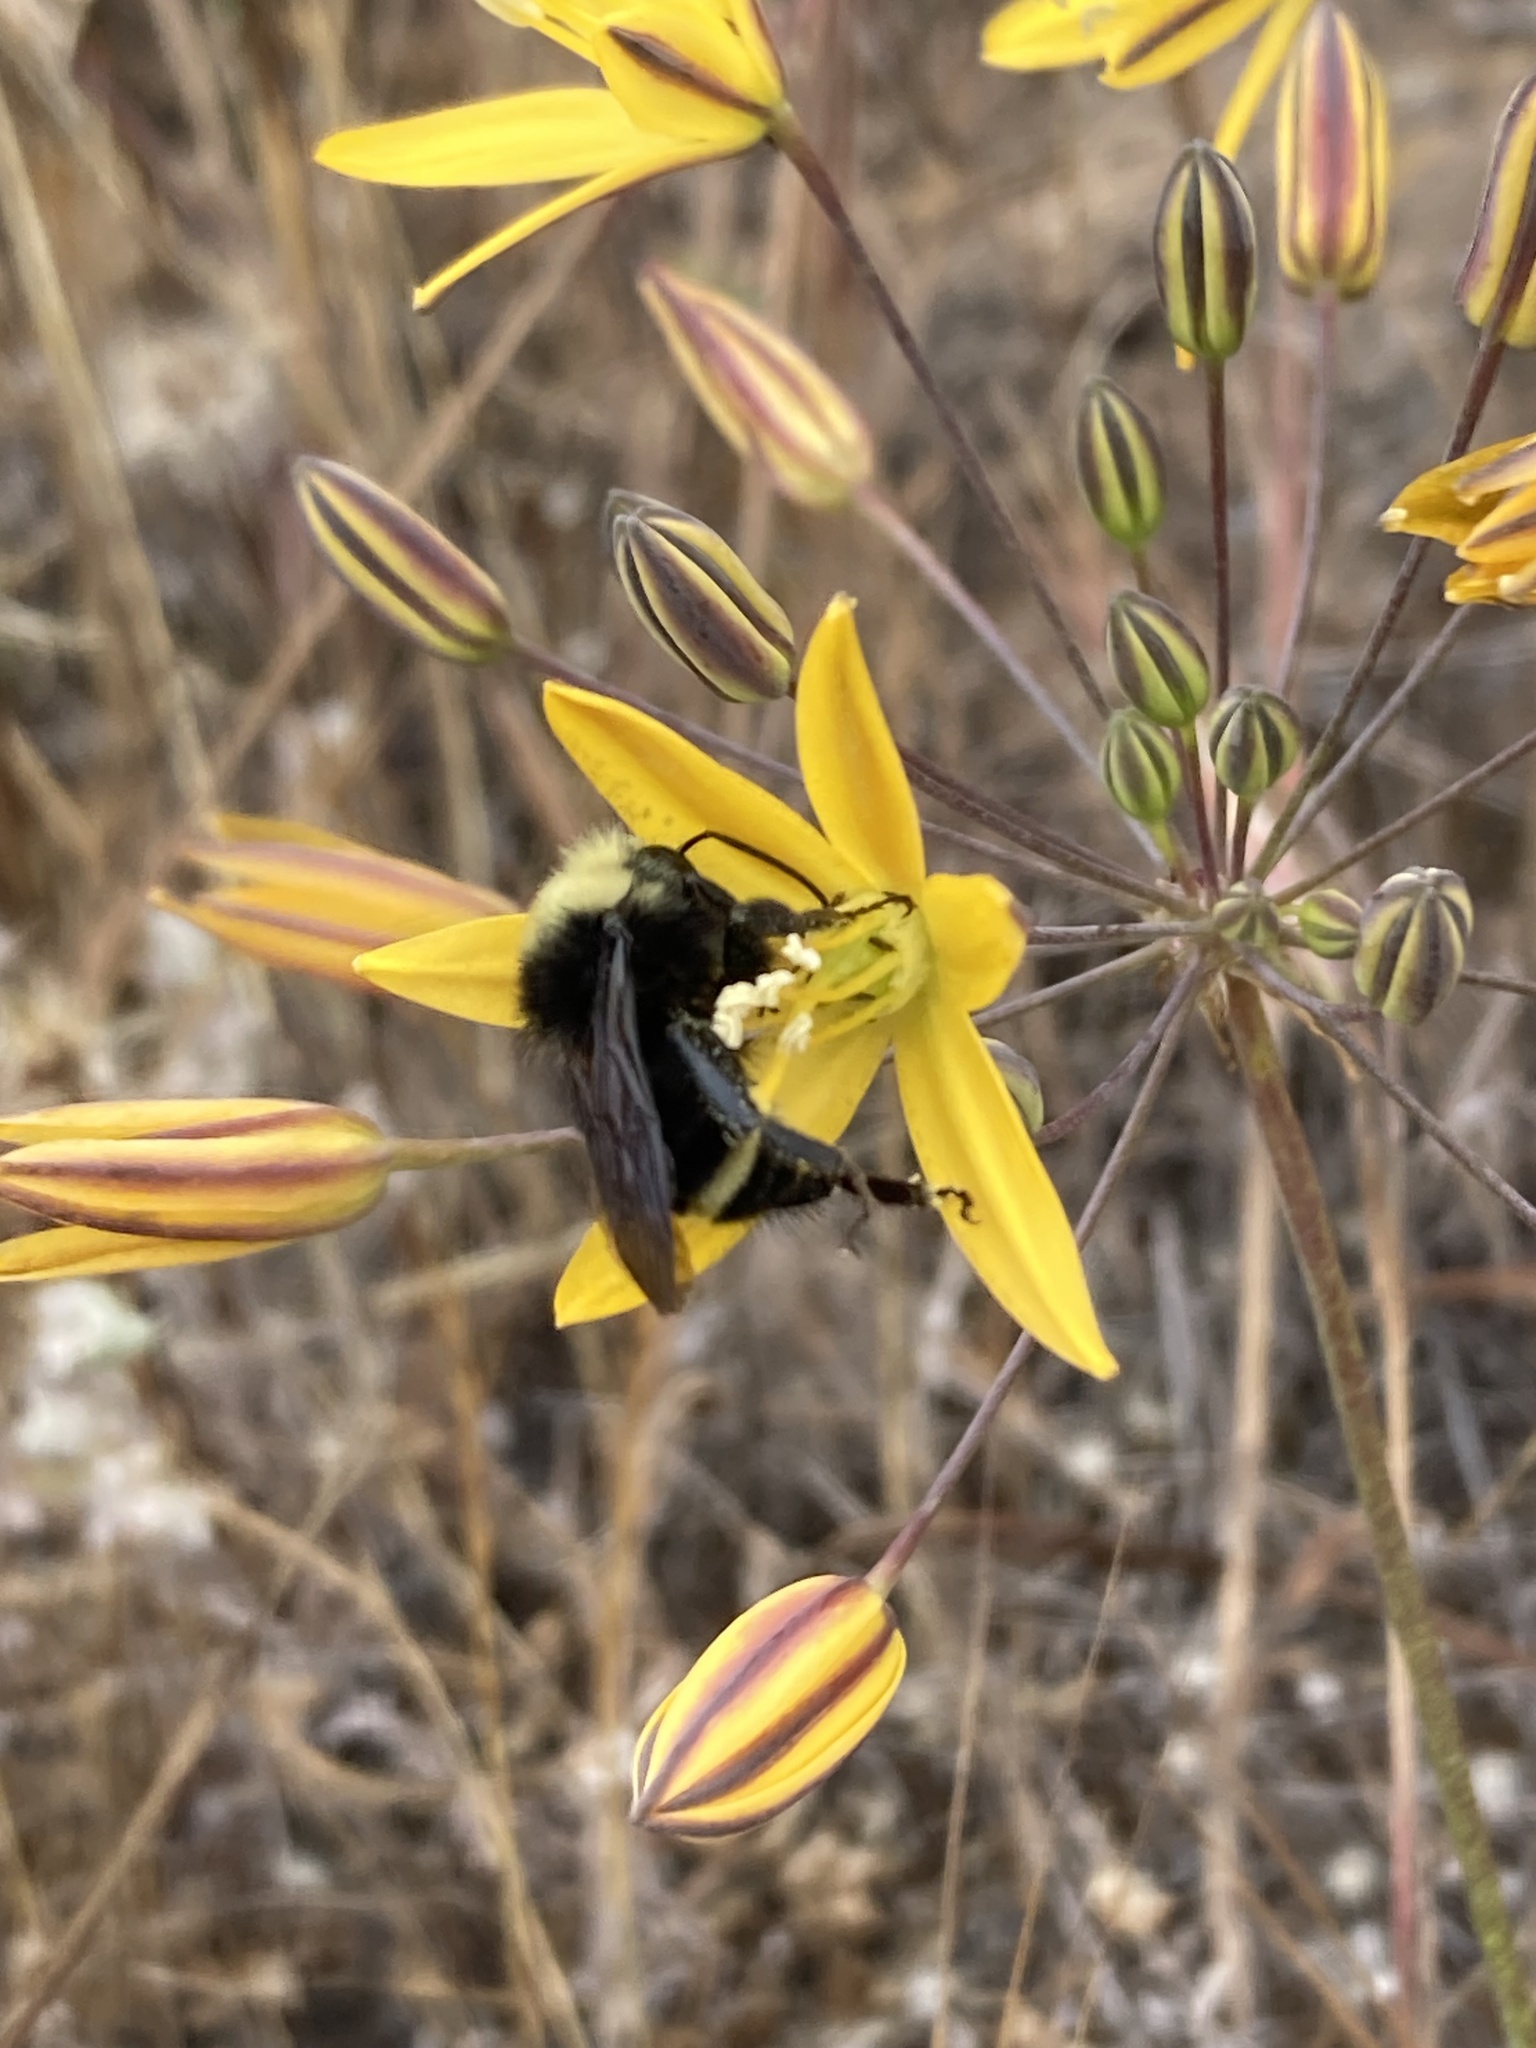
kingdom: Animalia
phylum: Arthropoda
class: Insecta
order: Hymenoptera
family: Apidae
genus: Bombus
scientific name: Bombus vosnesenskii
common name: Vosnesensky bumble bee
